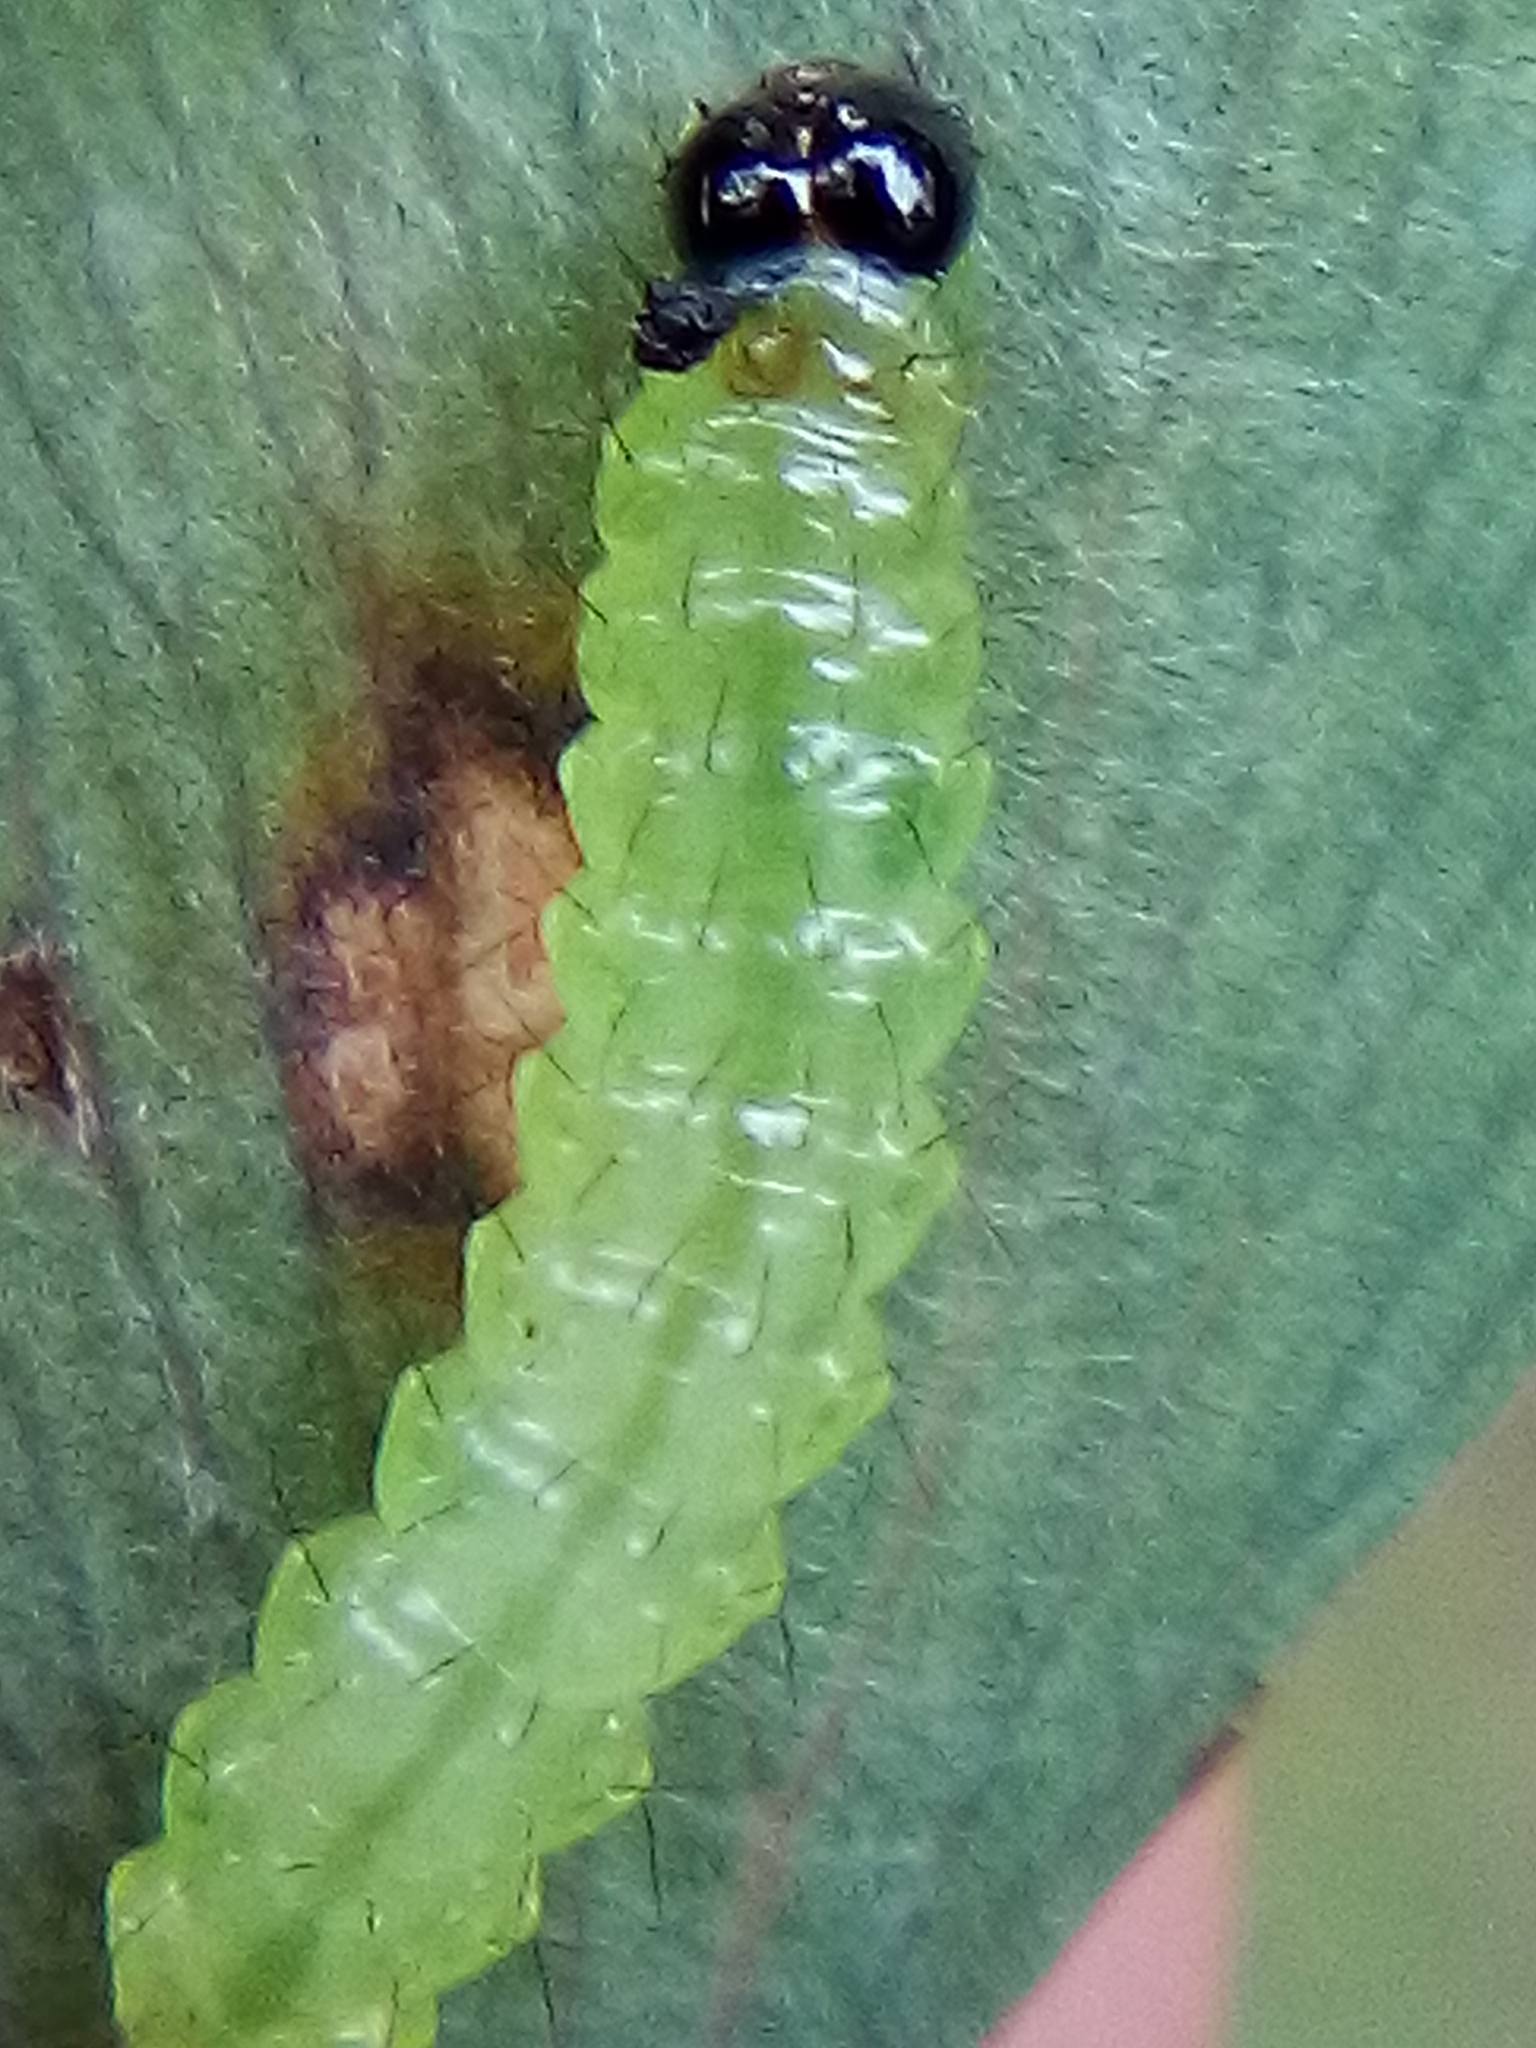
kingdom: Animalia
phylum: Arthropoda
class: Insecta
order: Lepidoptera
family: Pyralidae
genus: Musotima
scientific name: Musotima aduncalis
